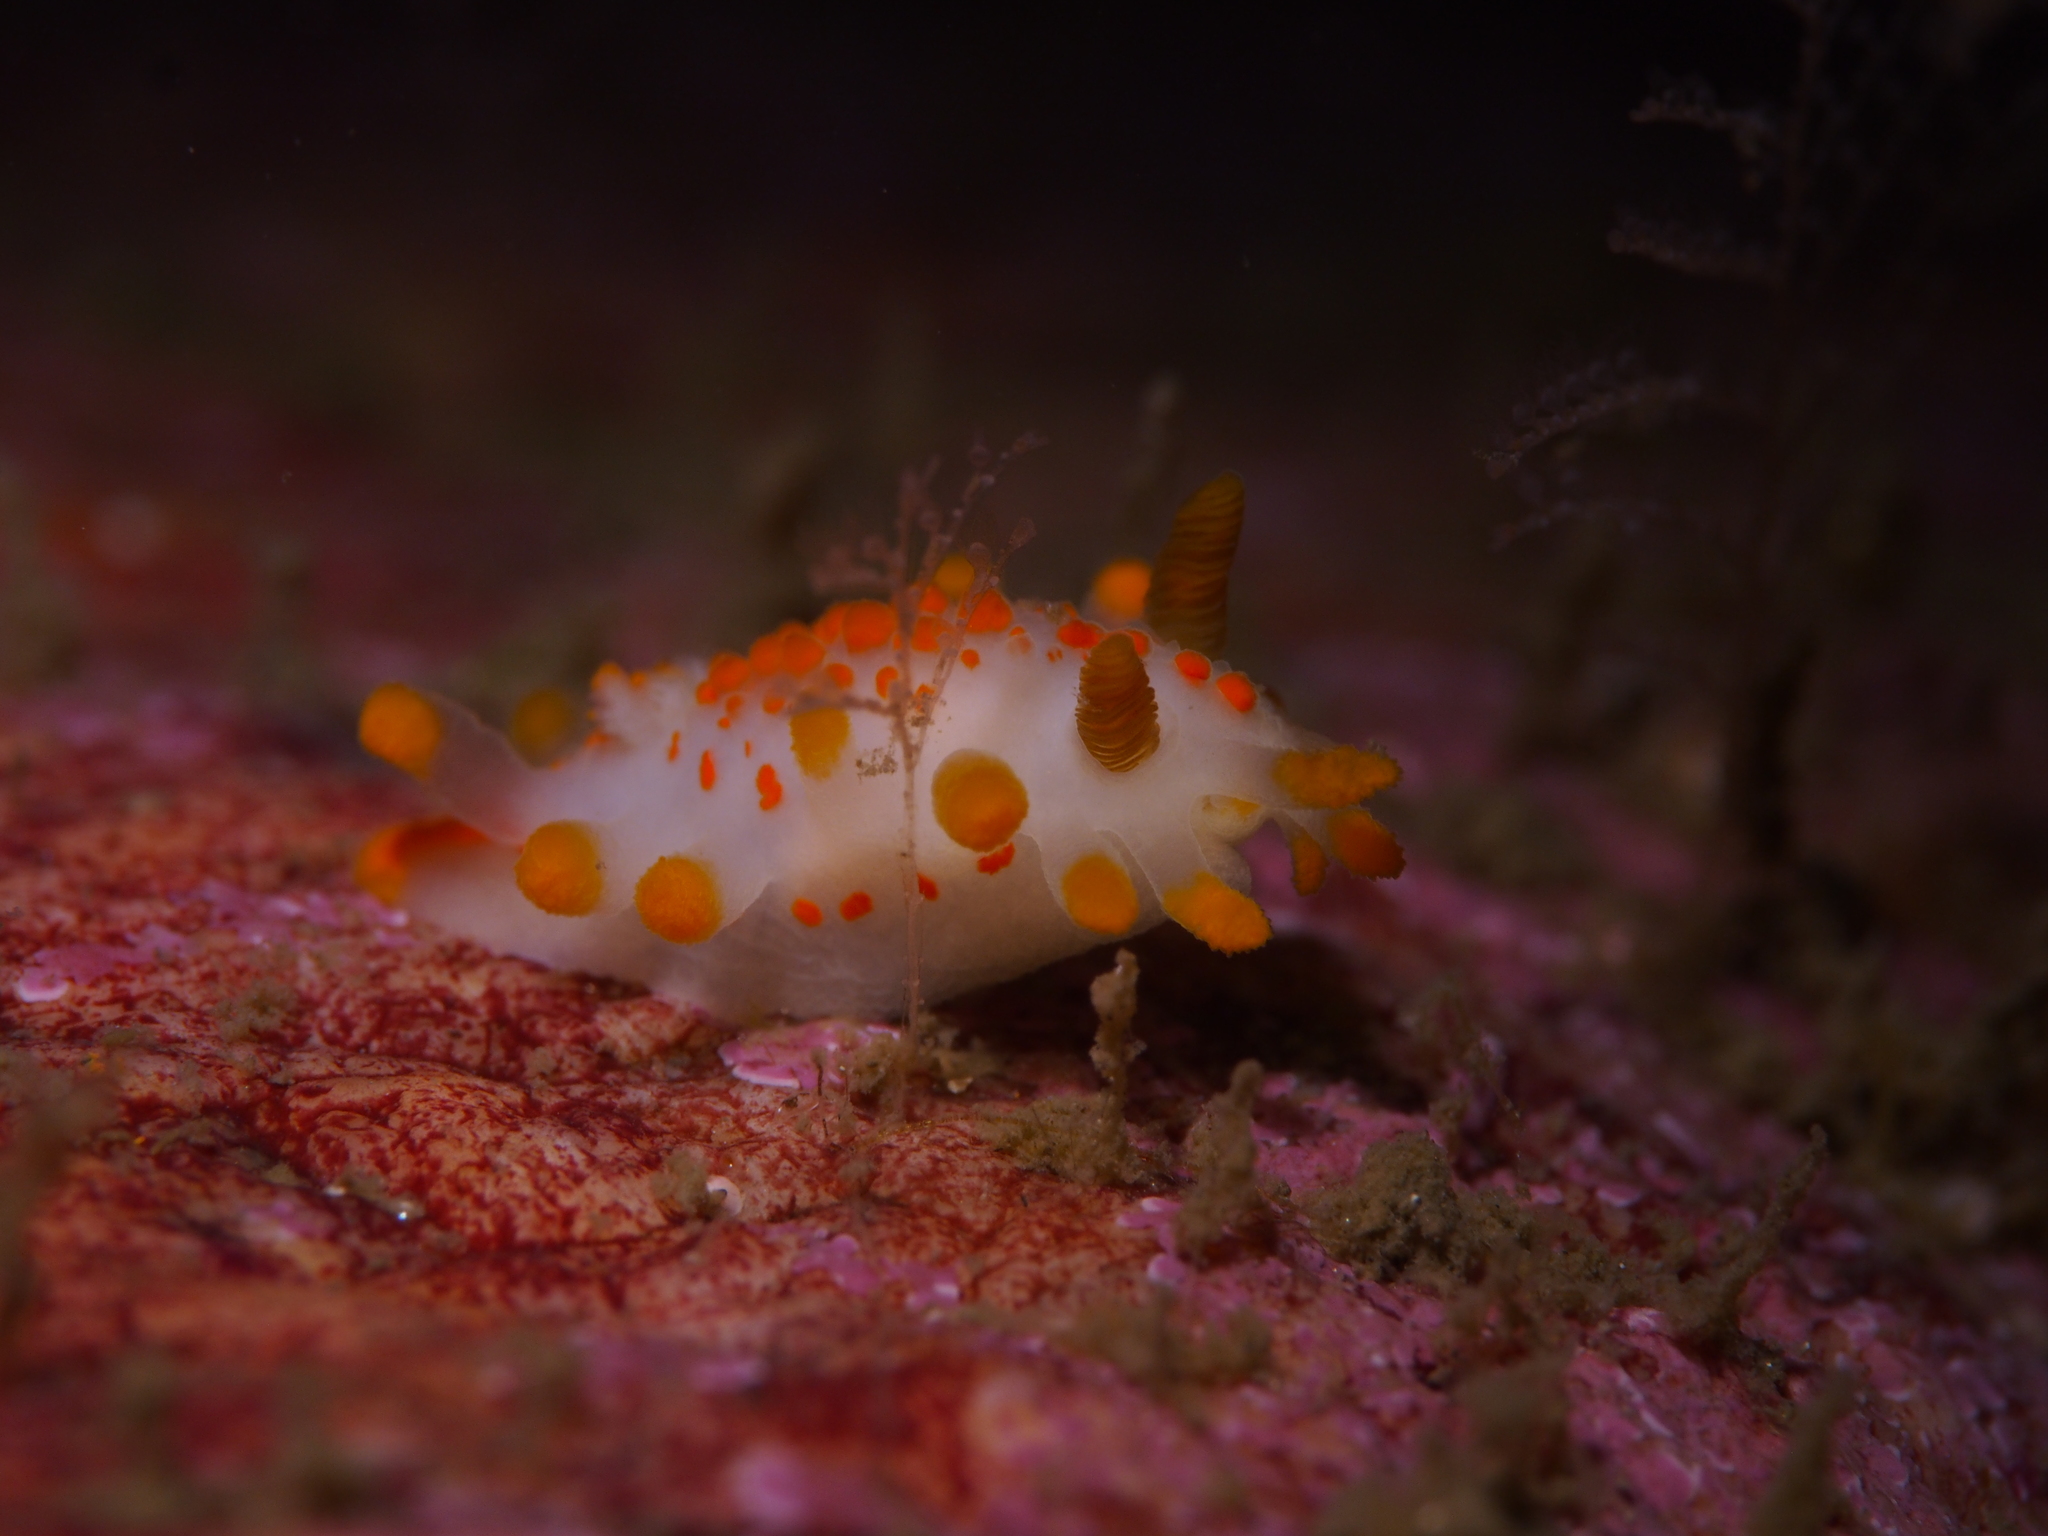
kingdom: Animalia
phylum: Mollusca
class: Gastropoda
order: Nudibranchia
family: Polyceridae
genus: Limacia
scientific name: Limacia clavigera
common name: Orange-clubbed sea slug
